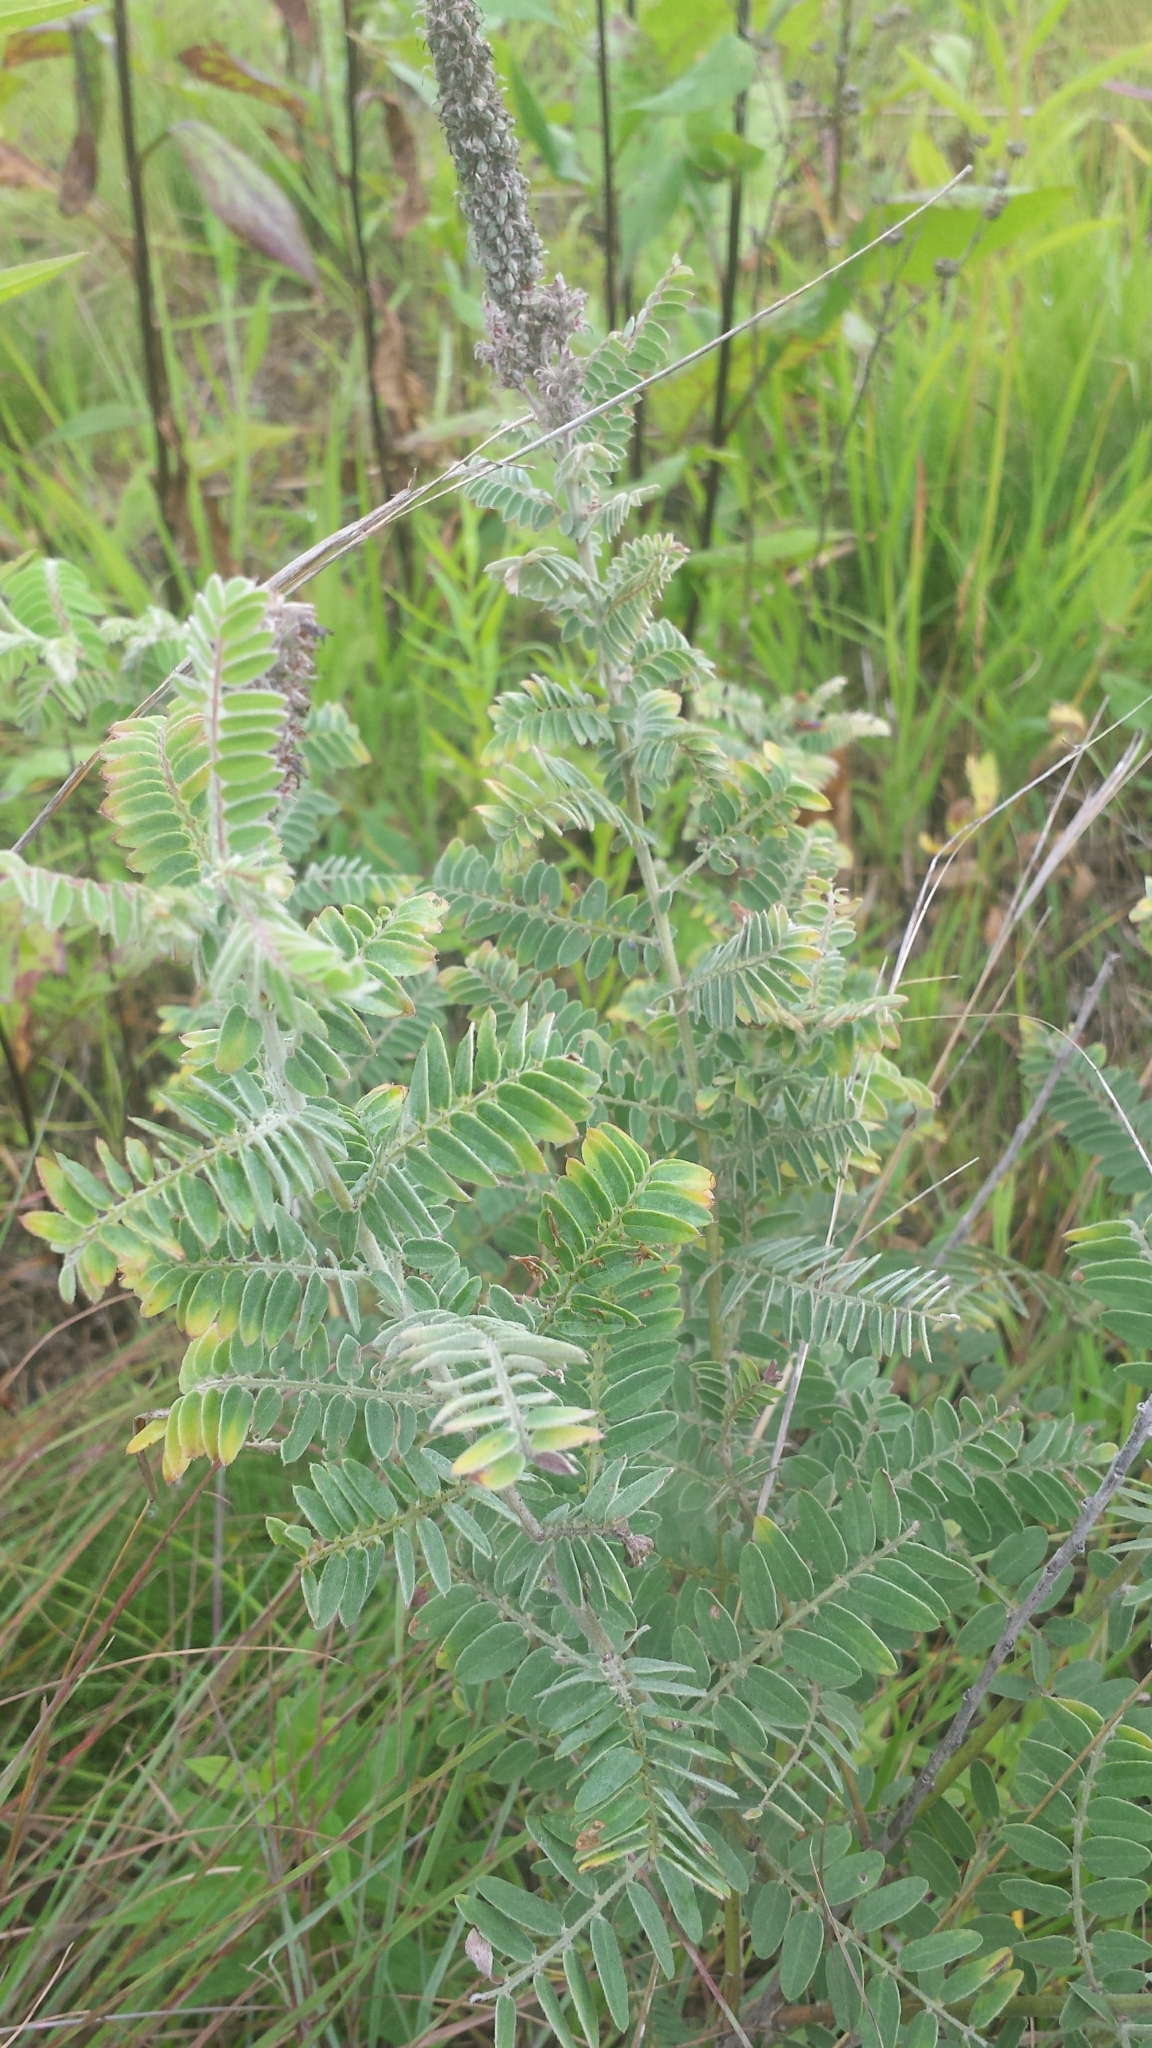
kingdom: Plantae
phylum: Tracheophyta
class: Magnoliopsida
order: Fabales
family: Fabaceae
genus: Amorpha
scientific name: Amorpha canescens
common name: Leadplant
